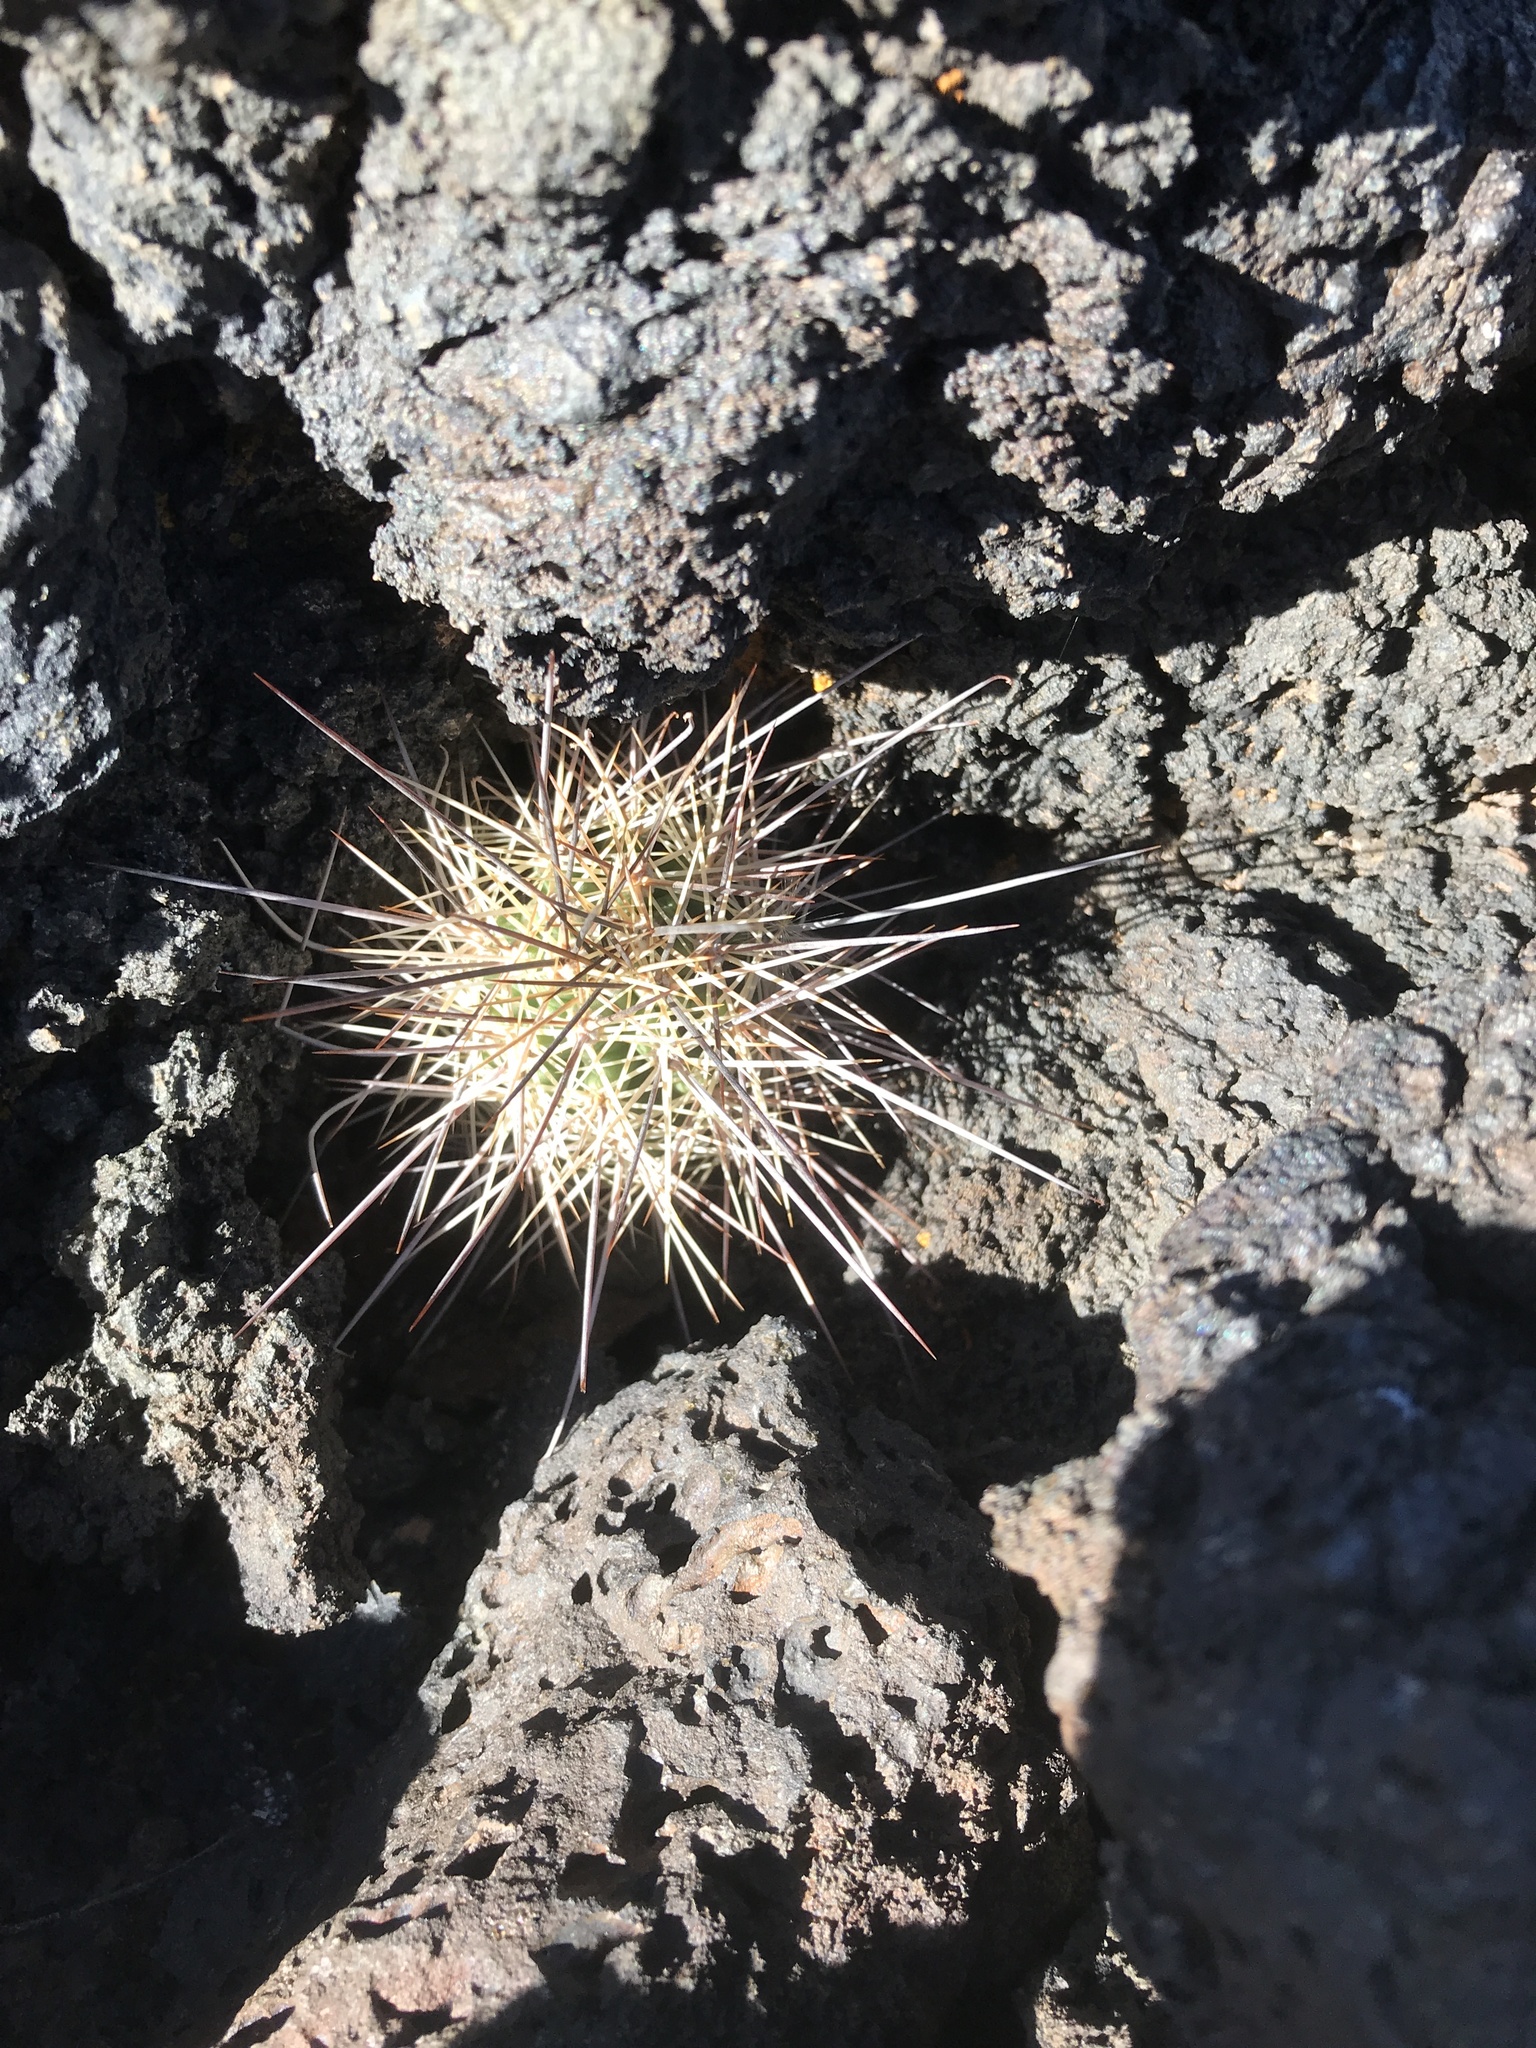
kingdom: Plantae
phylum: Tracheophyta
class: Magnoliopsida
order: Caryophyllales
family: Cactaceae
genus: Echinocereus
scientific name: Echinocereus coccineus
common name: Scarlet hedgehog cactus
